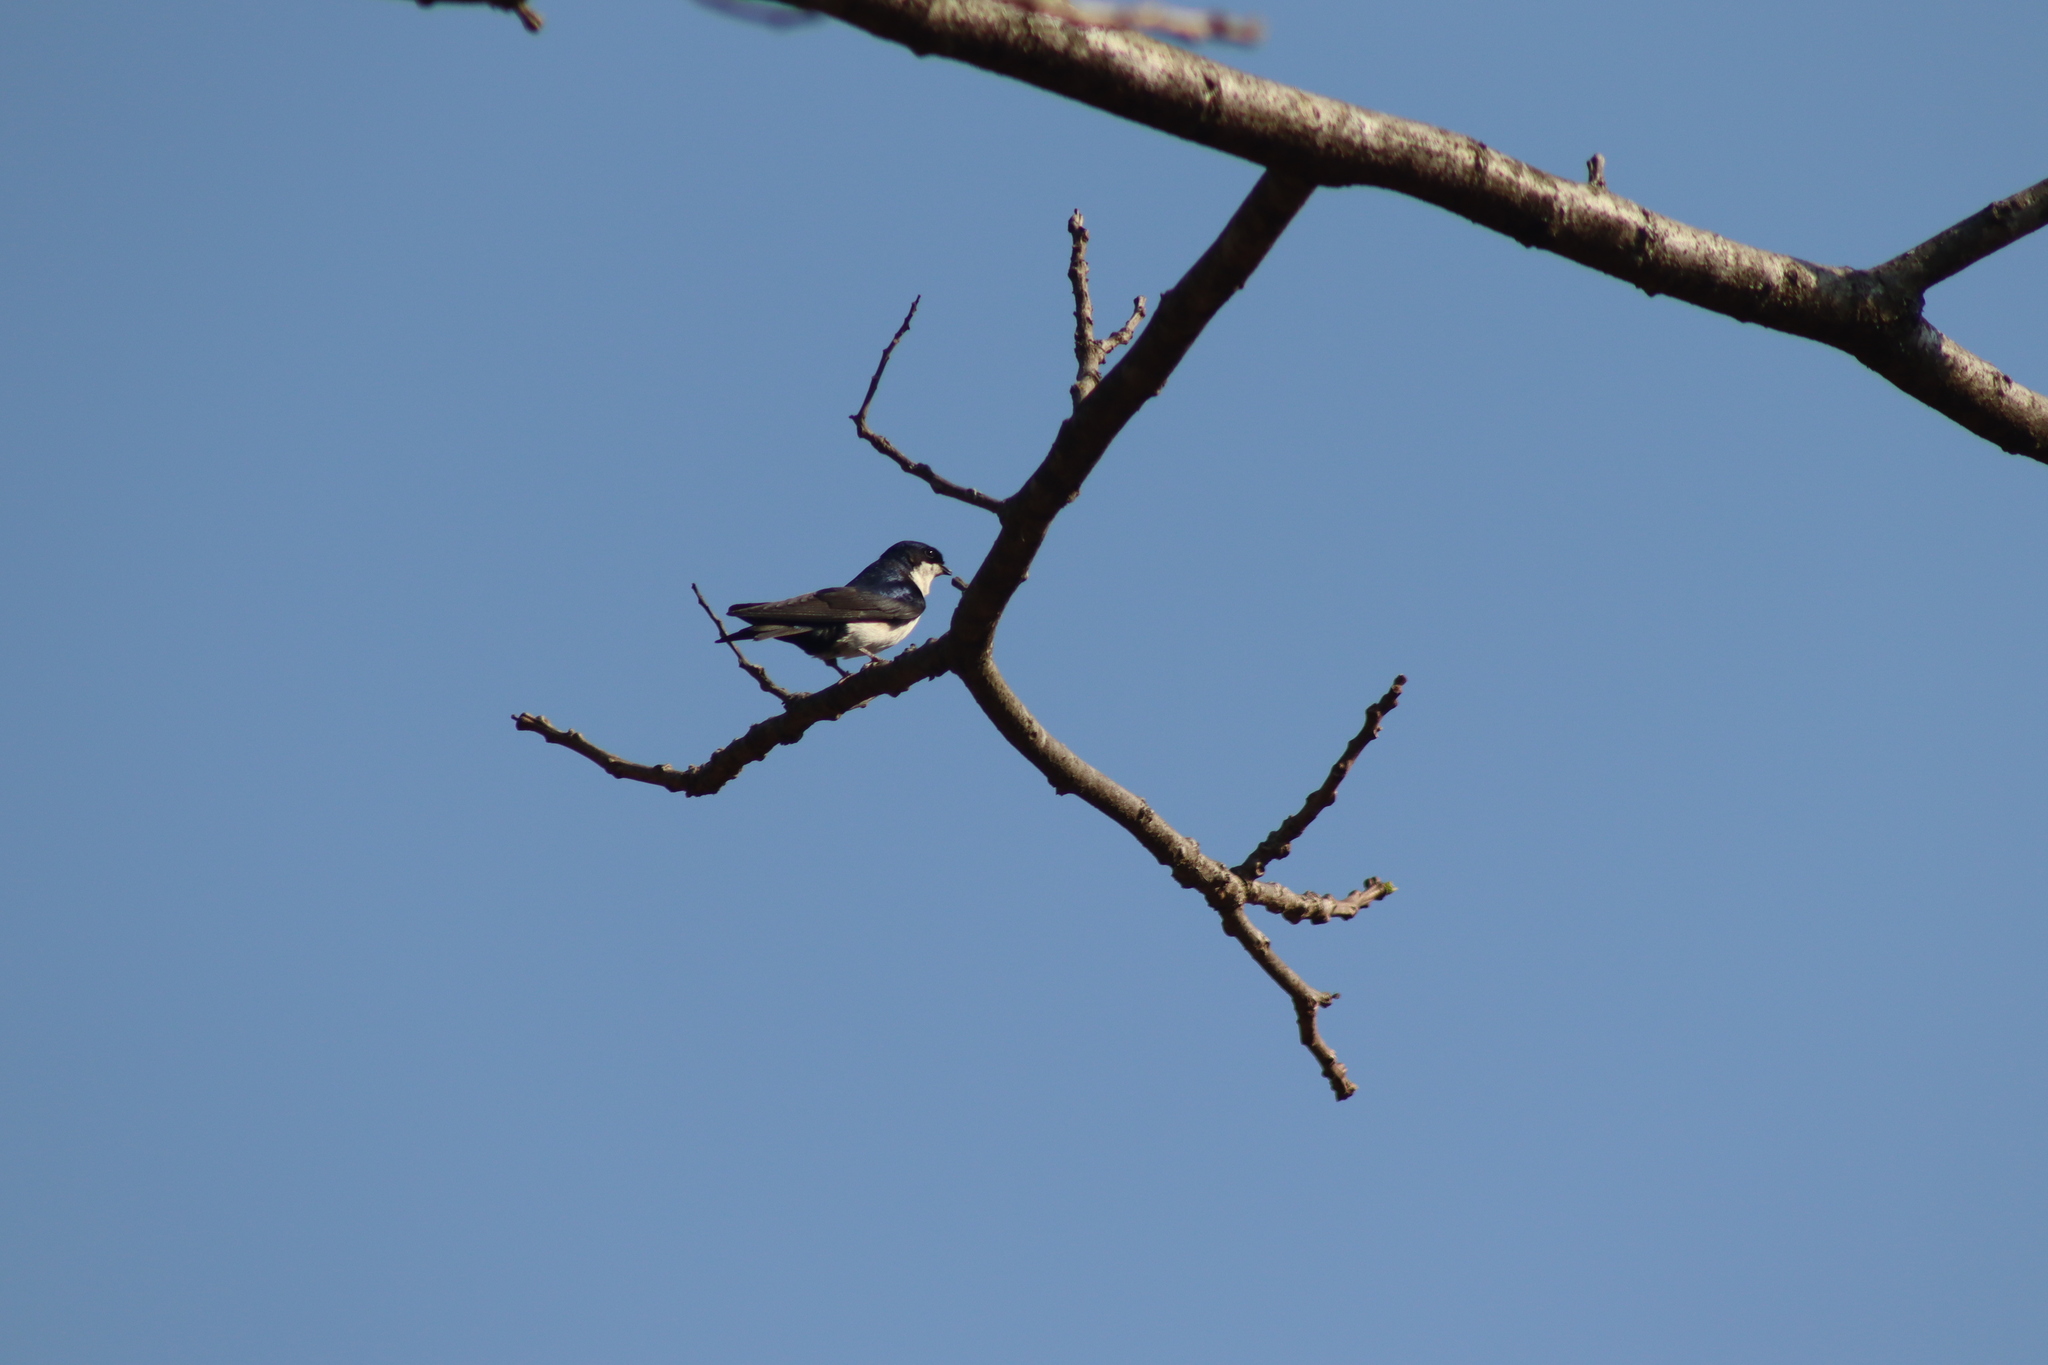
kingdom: Animalia
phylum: Chordata
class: Aves
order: Passeriformes
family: Hirundinidae
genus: Notiochelidon
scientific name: Notiochelidon cyanoleuca
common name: Blue-and-white swallow
